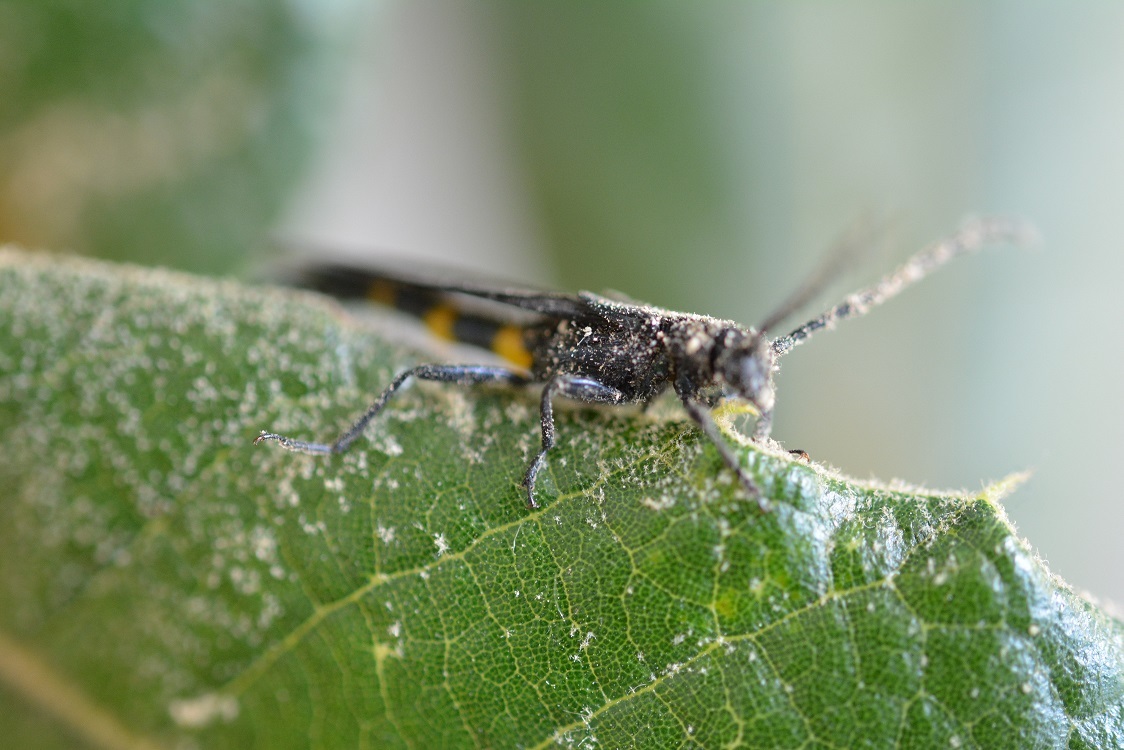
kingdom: Animalia
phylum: Arthropoda
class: Insecta
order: Coleoptera
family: Cerambycidae
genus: Rhathymoscelis
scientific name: Rhathymoscelis batesi
